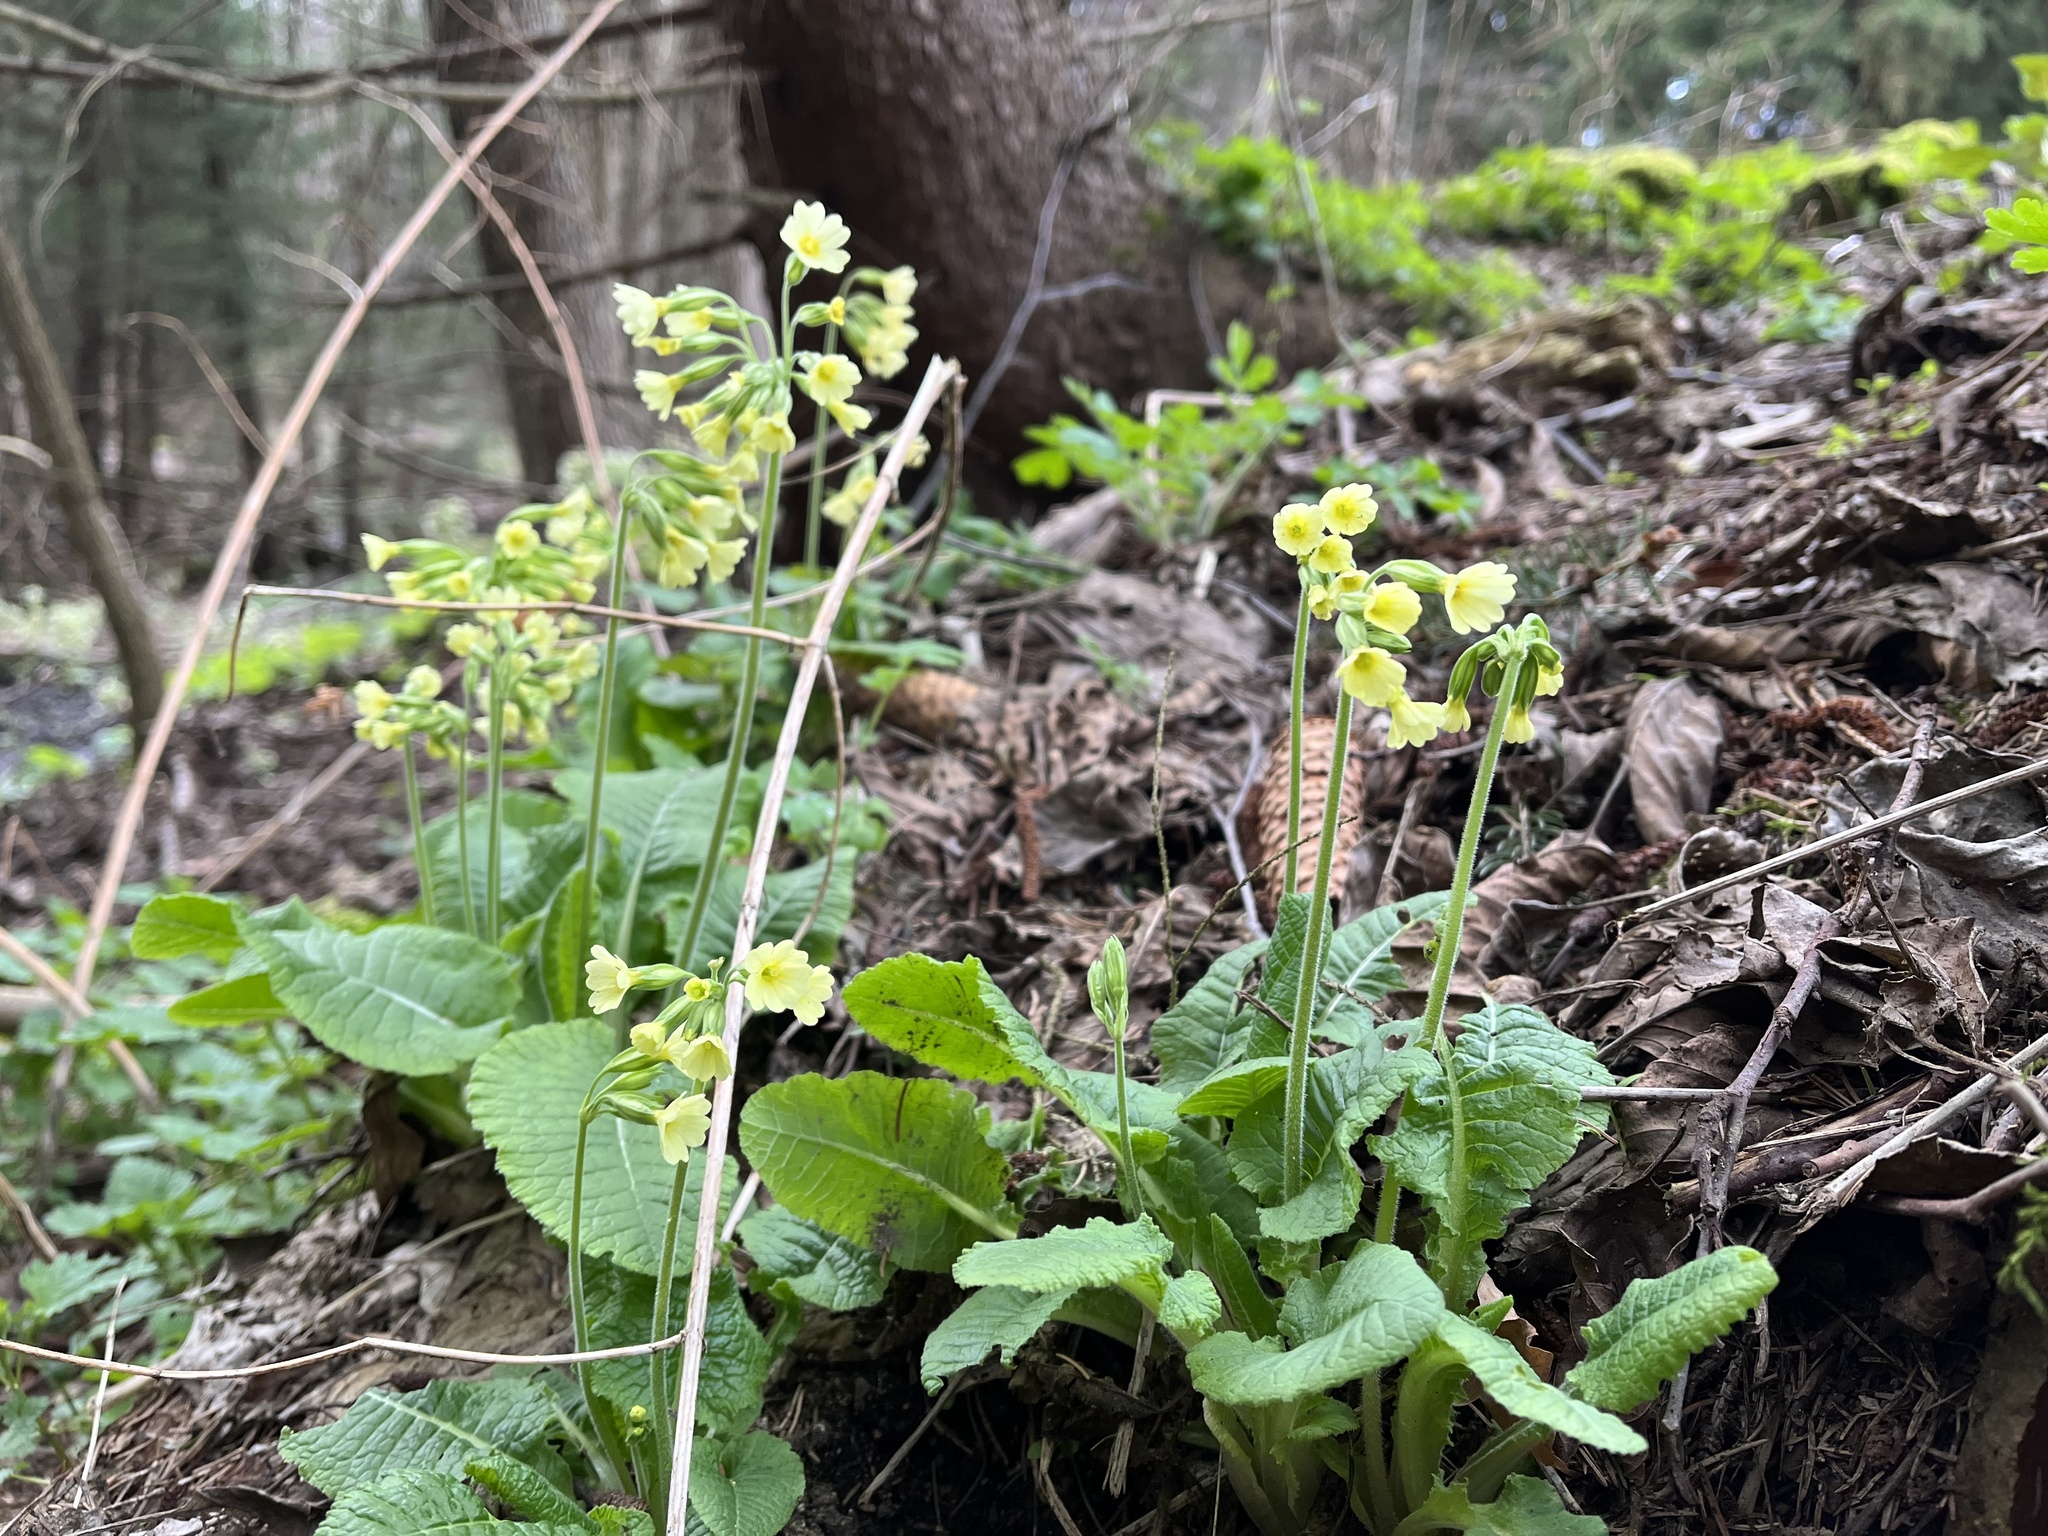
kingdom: Plantae
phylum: Tracheophyta
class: Magnoliopsida
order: Ericales
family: Primulaceae
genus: Primula
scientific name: Primula elatior
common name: Oxlip
